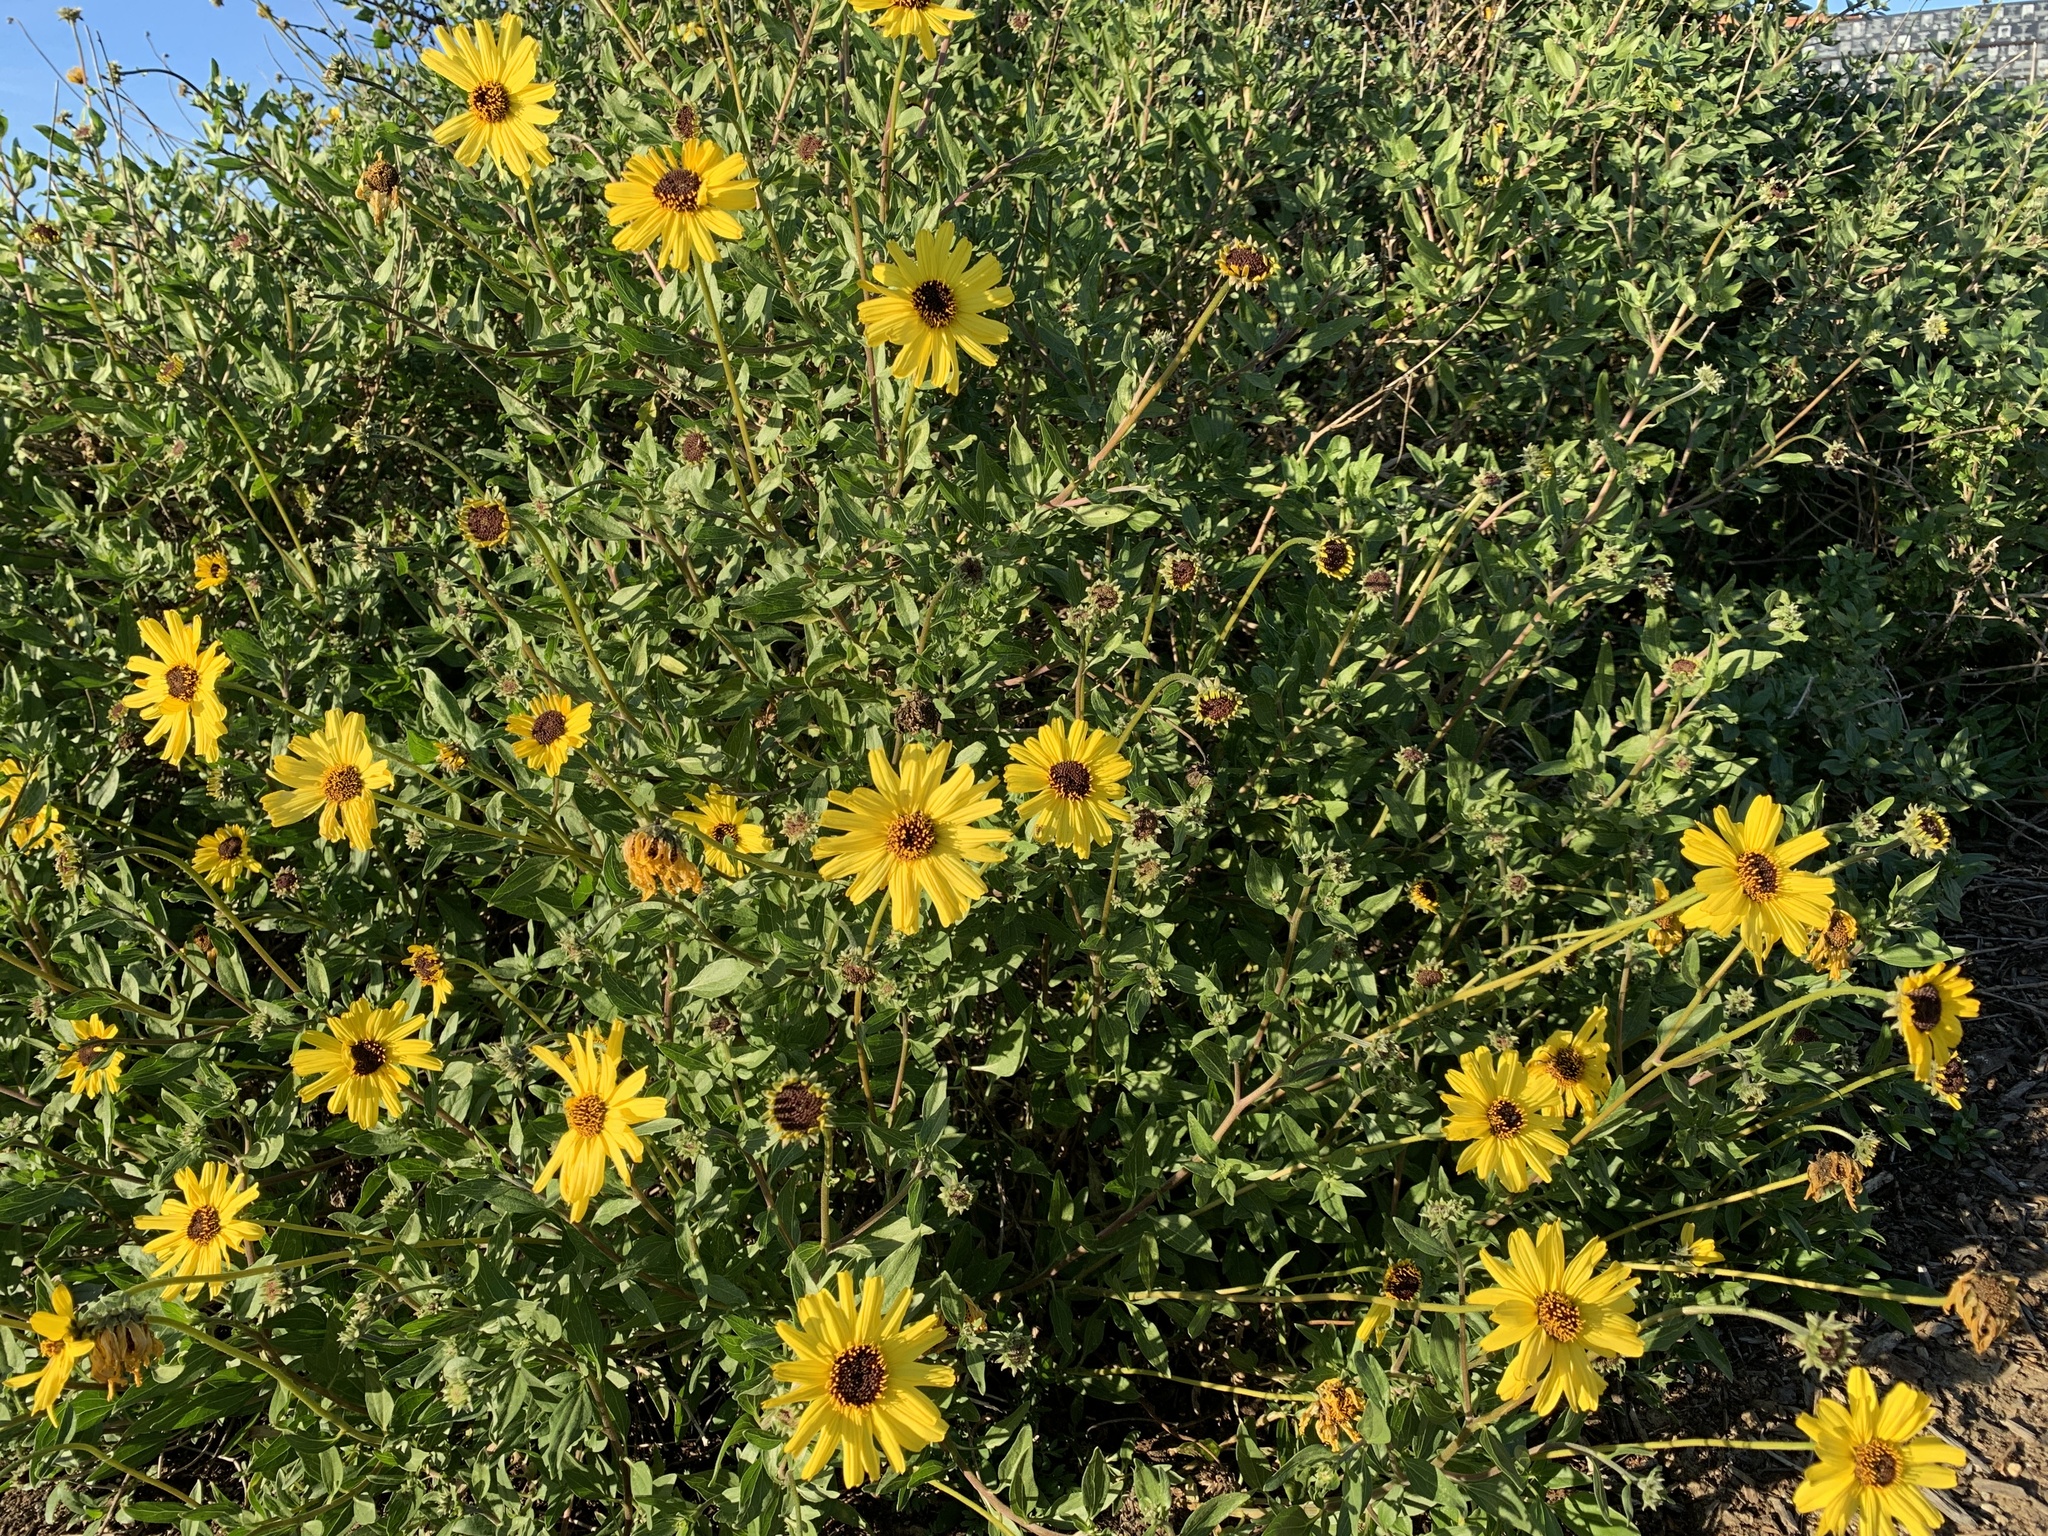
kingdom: Plantae
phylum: Tracheophyta
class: Magnoliopsida
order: Asterales
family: Asteraceae
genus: Encelia
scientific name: Encelia californica
